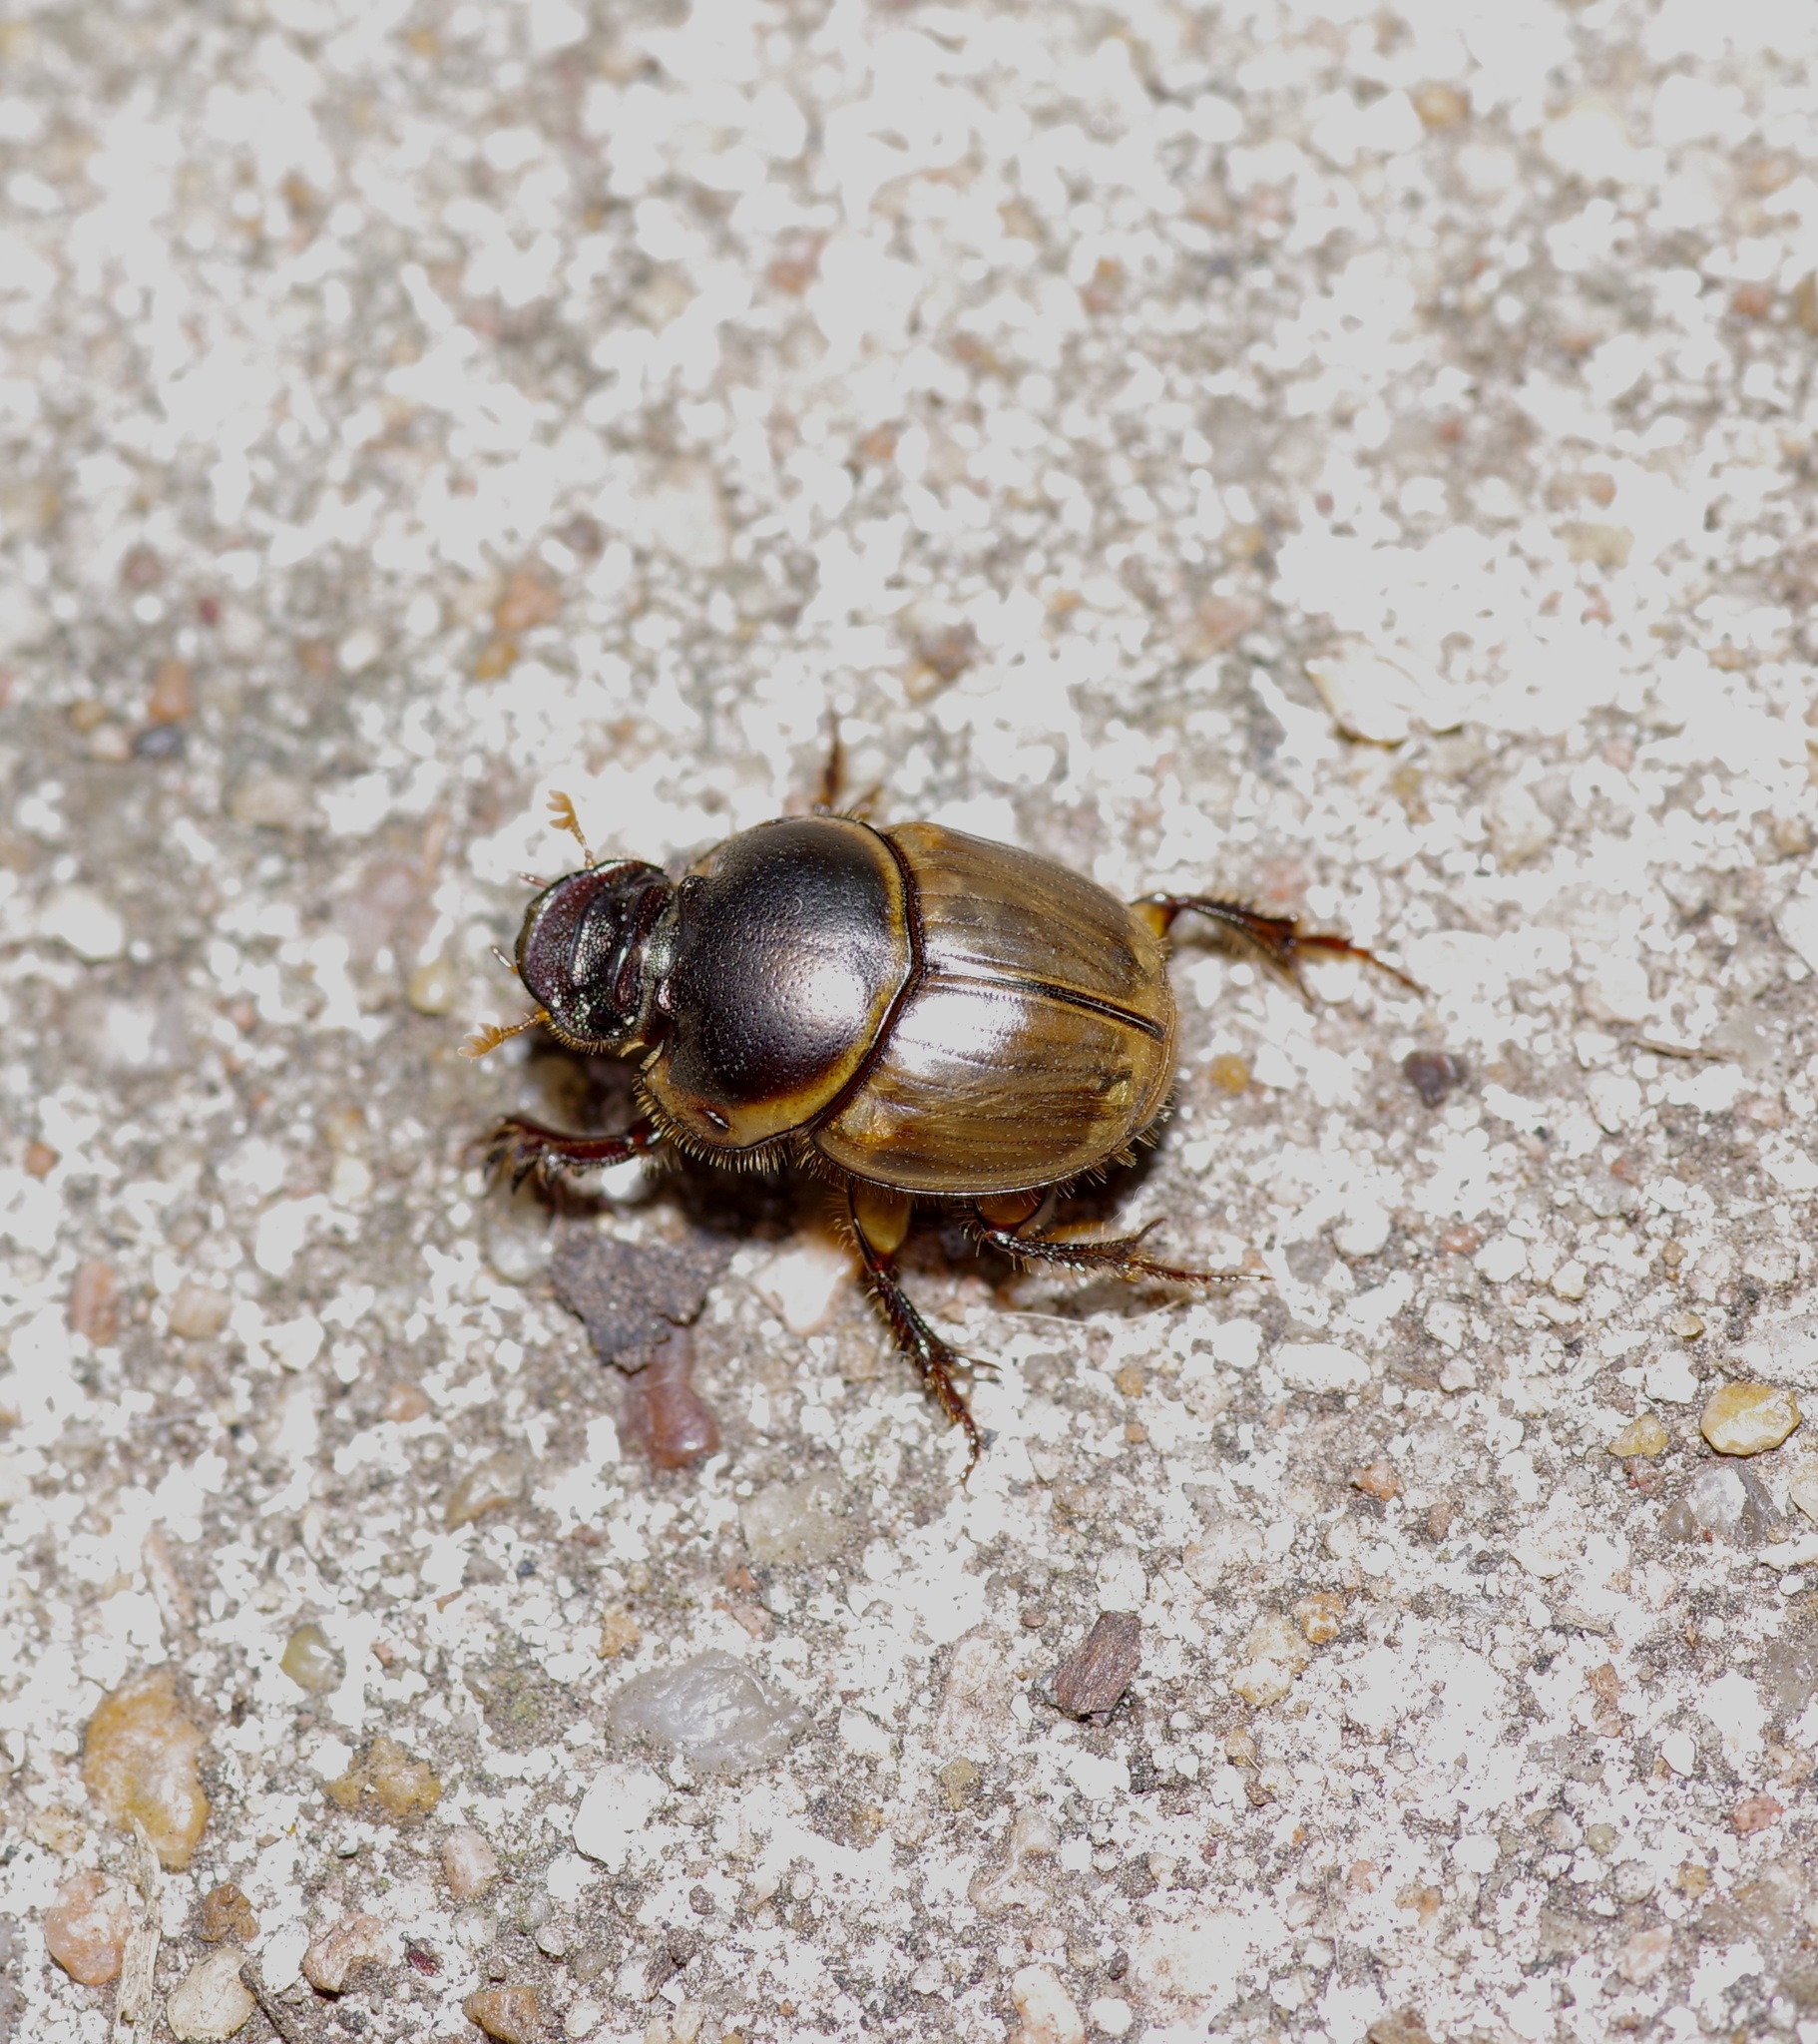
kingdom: Animalia
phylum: Arthropoda
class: Insecta
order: Coleoptera
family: Scarabaeidae
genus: Digitonthophagus
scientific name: Digitonthophagus gazella
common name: Brown dung beetle
